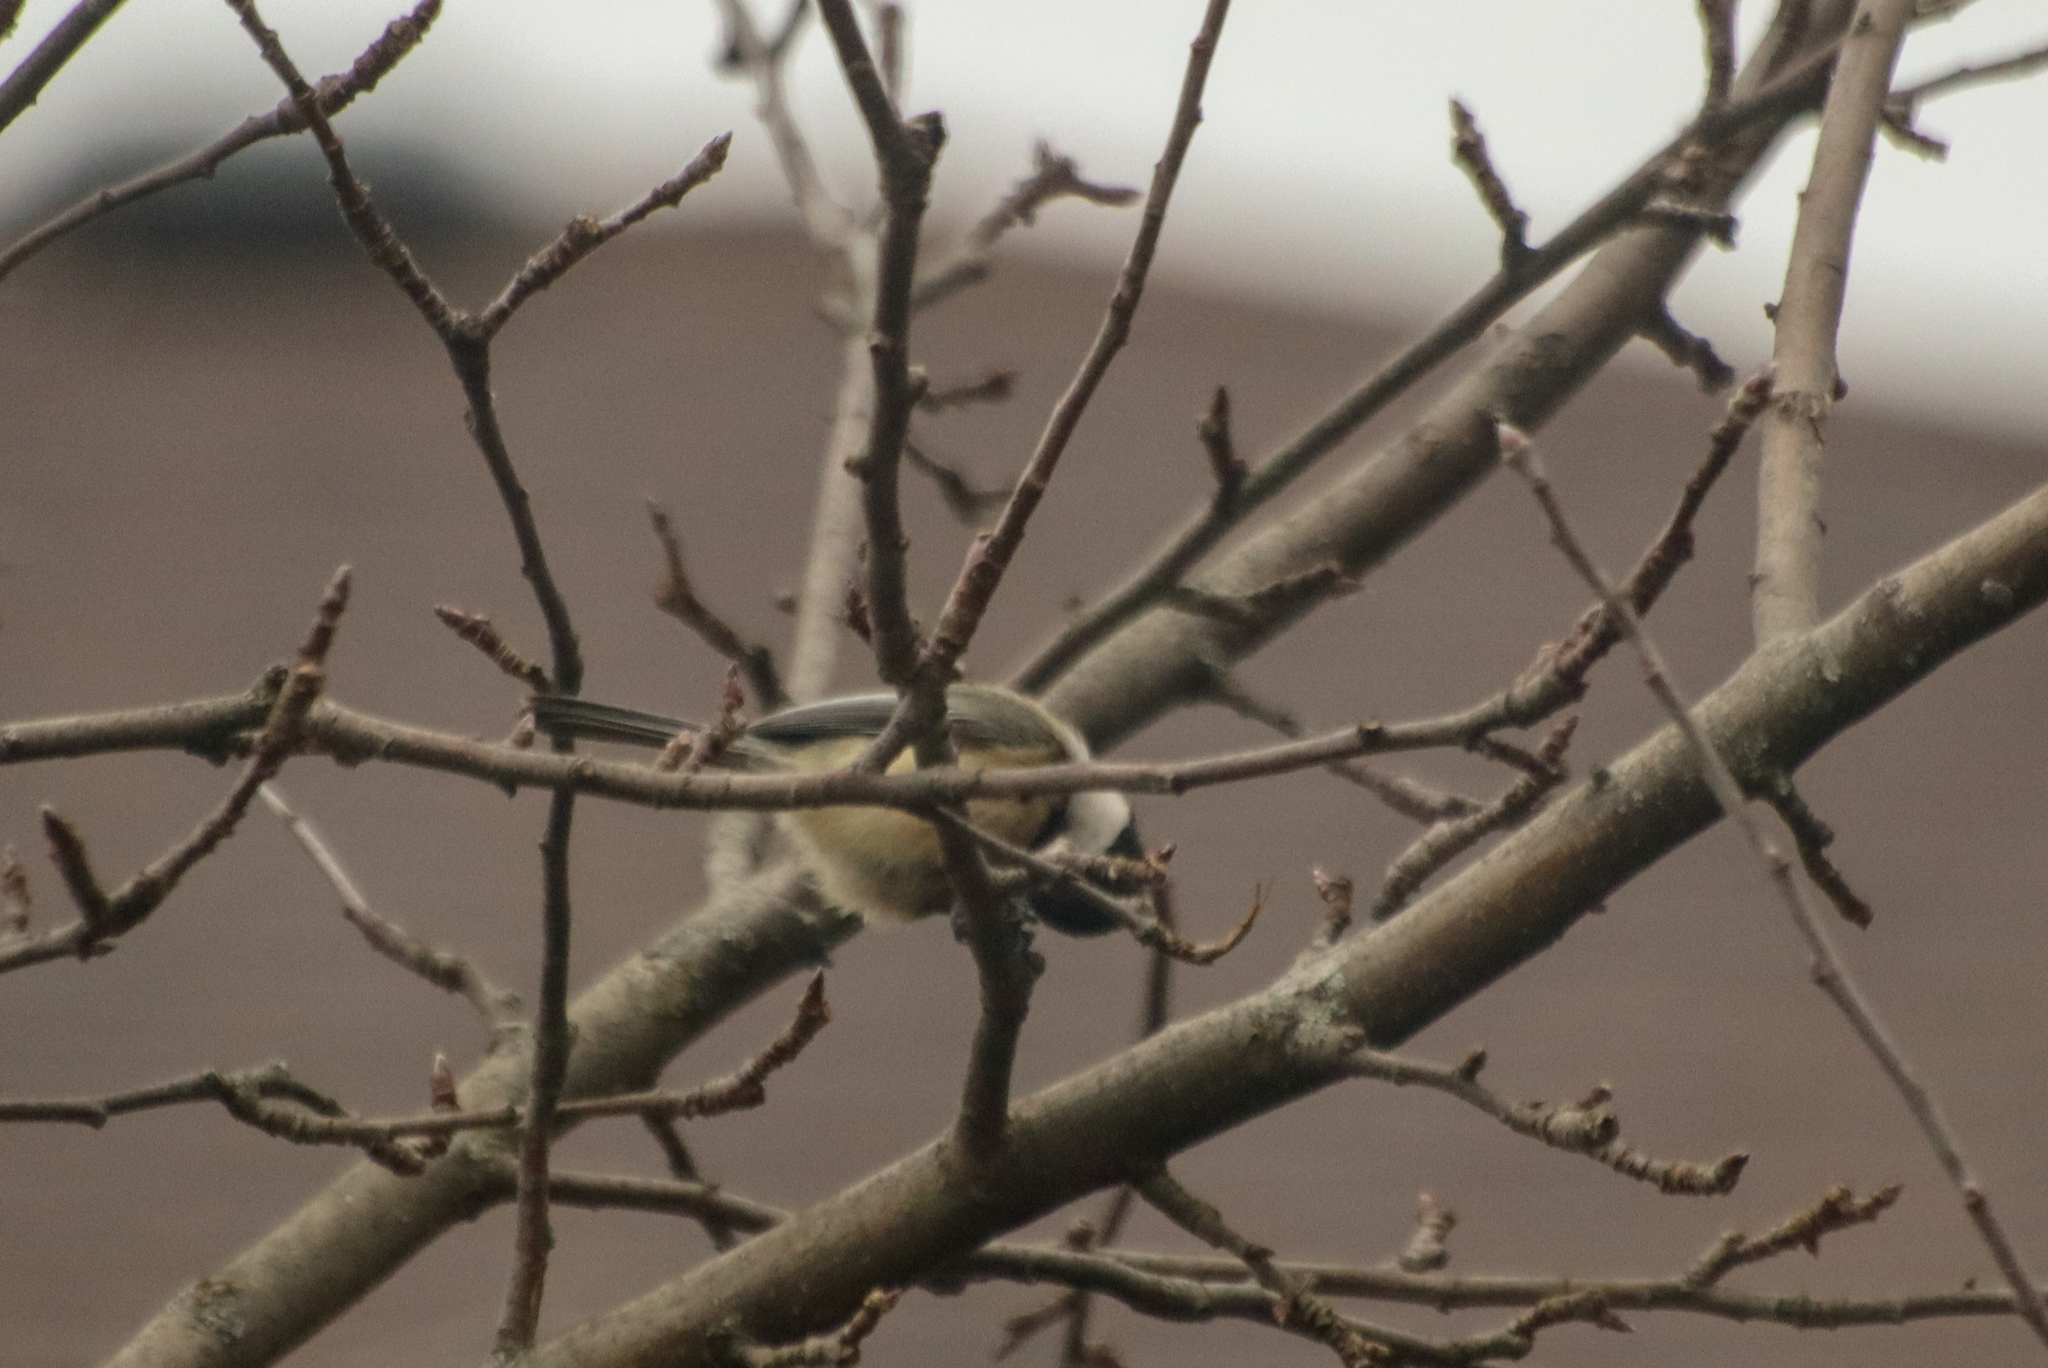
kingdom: Animalia
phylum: Chordata
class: Aves
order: Passeriformes
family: Paridae
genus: Poecile
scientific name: Poecile atricapillus
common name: Black-capped chickadee
